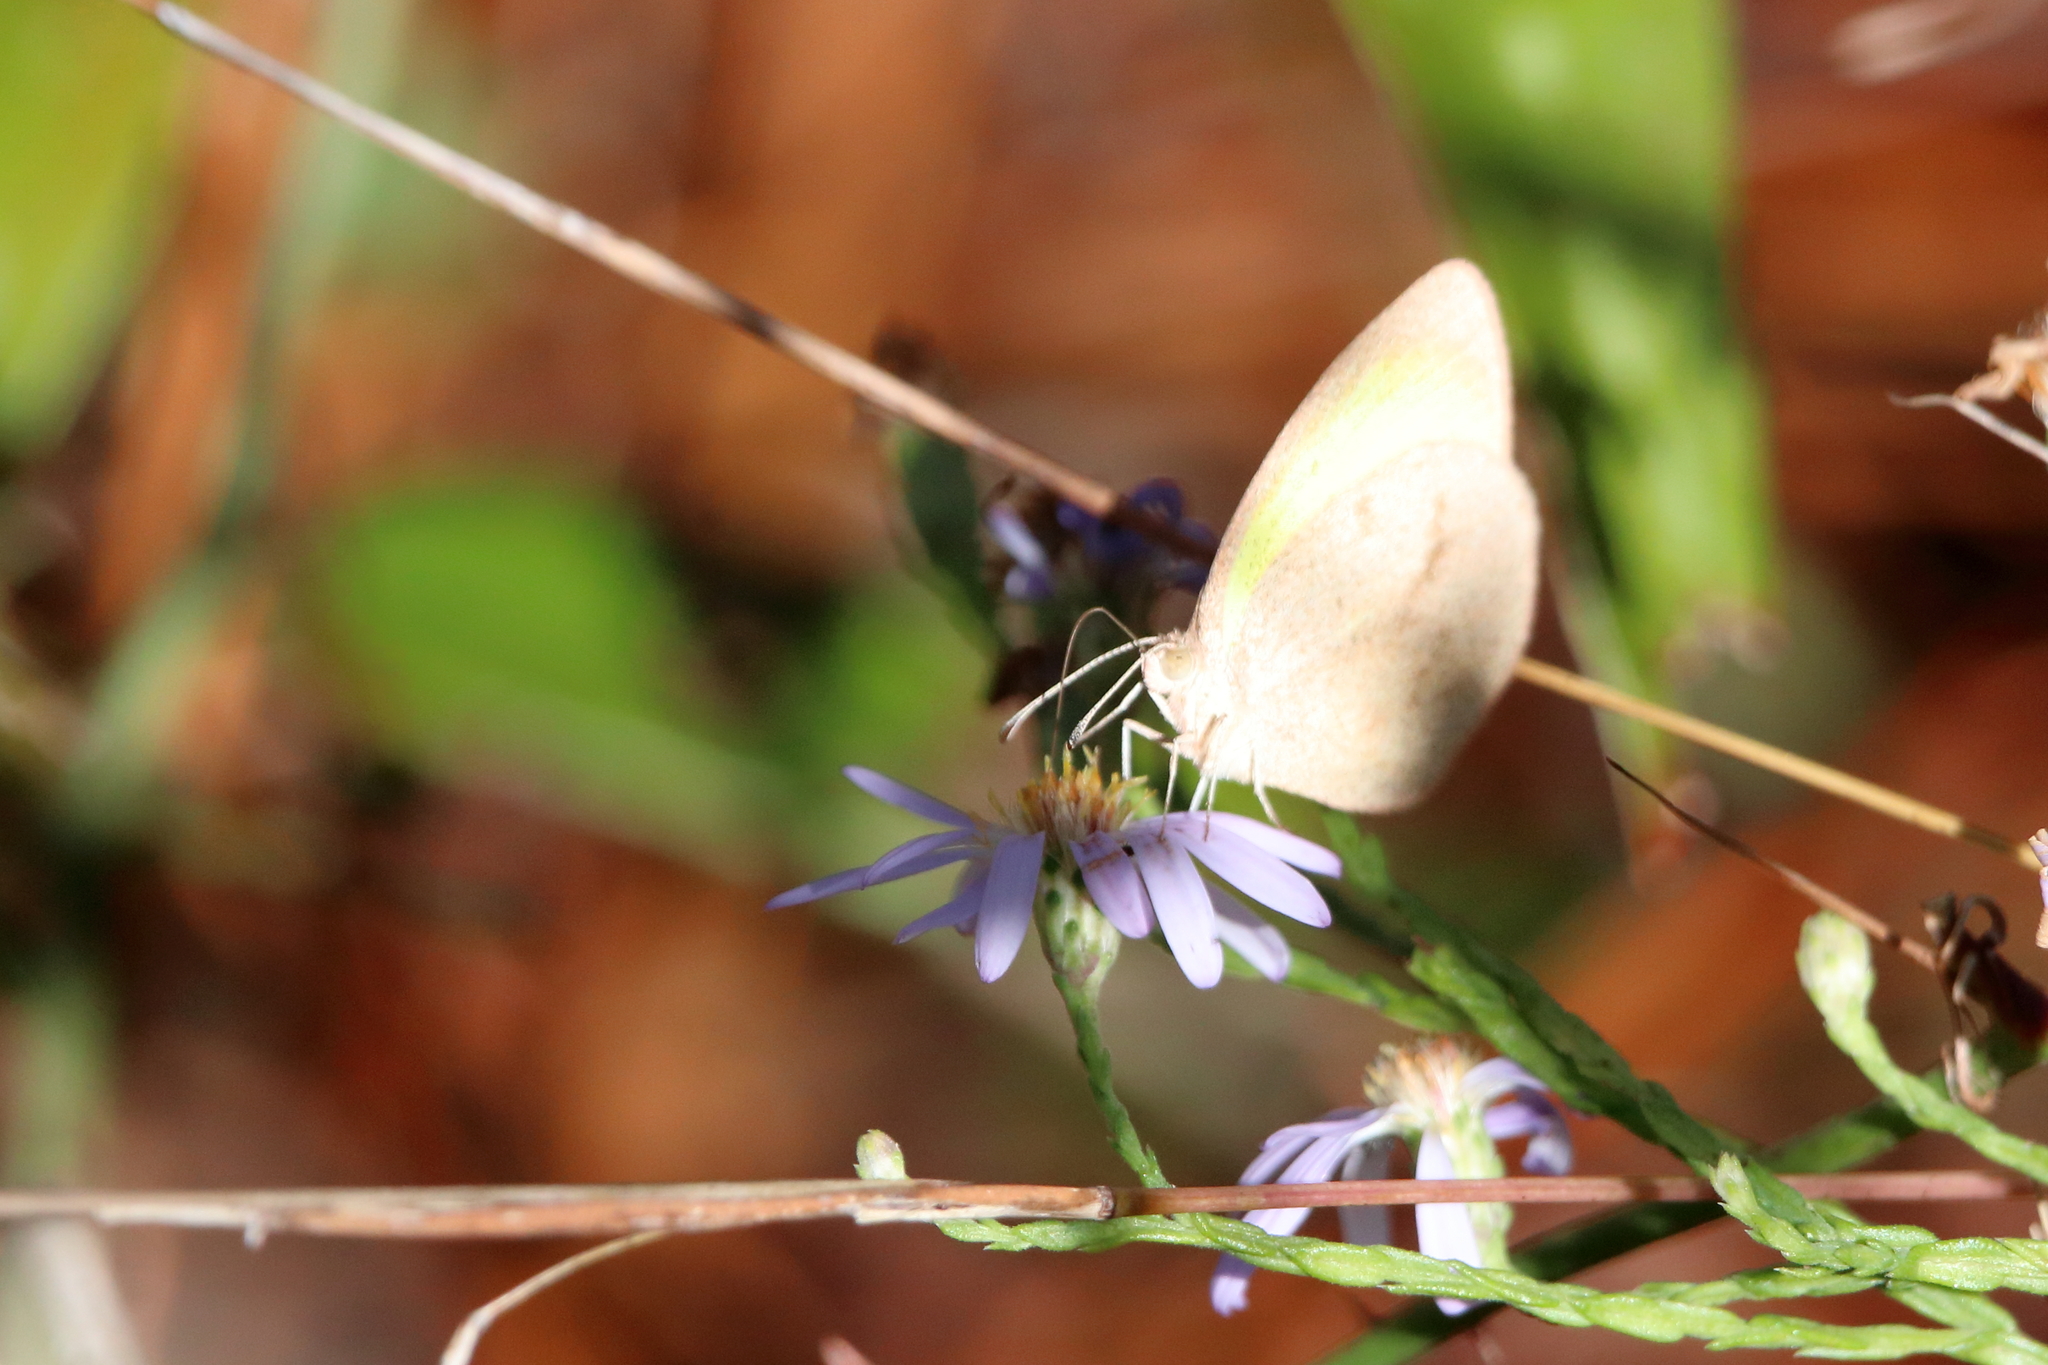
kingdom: Animalia
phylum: Arthropoda
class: Insecta
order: Lepidoptera
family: Pieridae
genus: Eurema
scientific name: Eurema daira
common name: Barred sulphur
